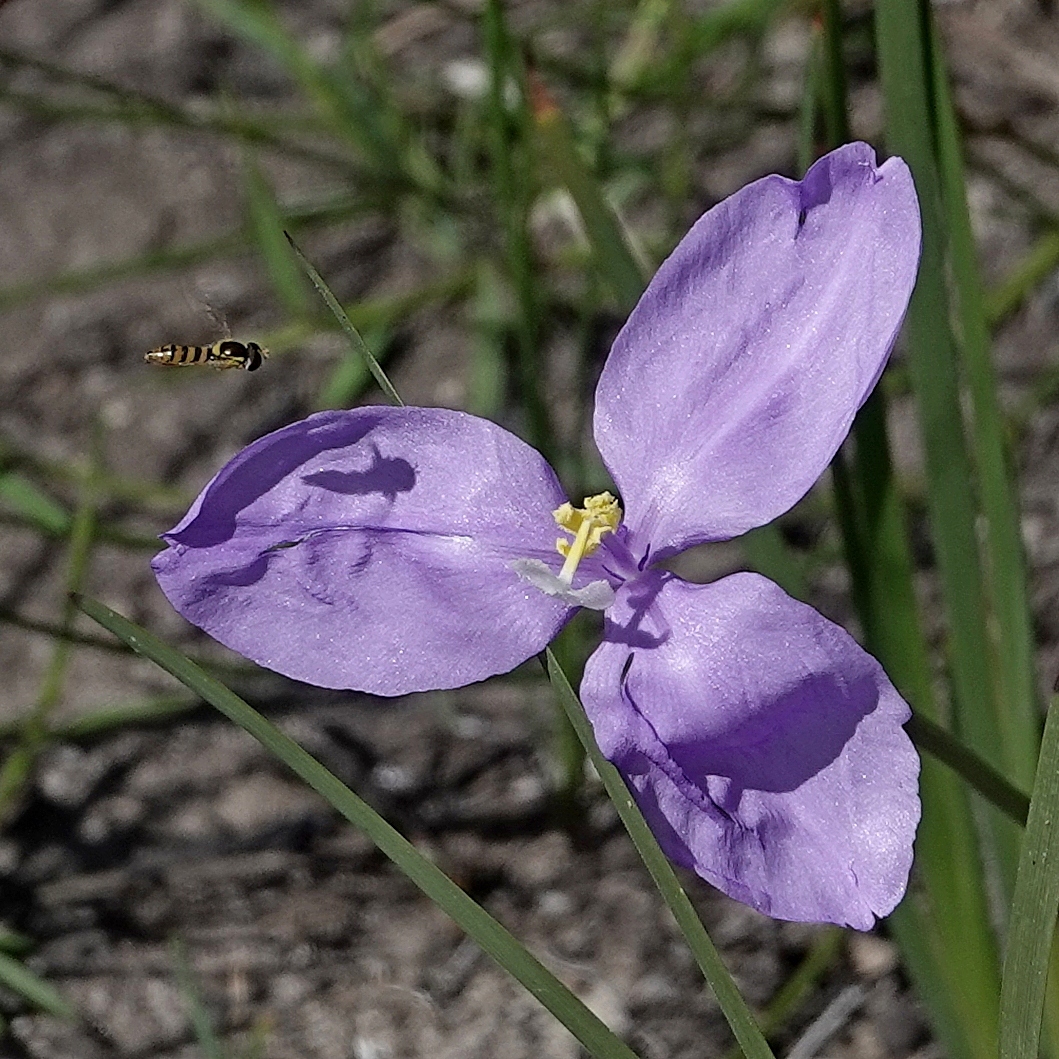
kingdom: Animalia
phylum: Arthropoda
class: Insecta
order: Diptera
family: Syrphidae
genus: Sphaerophoria
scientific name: Sphaerophoria macrogaster
